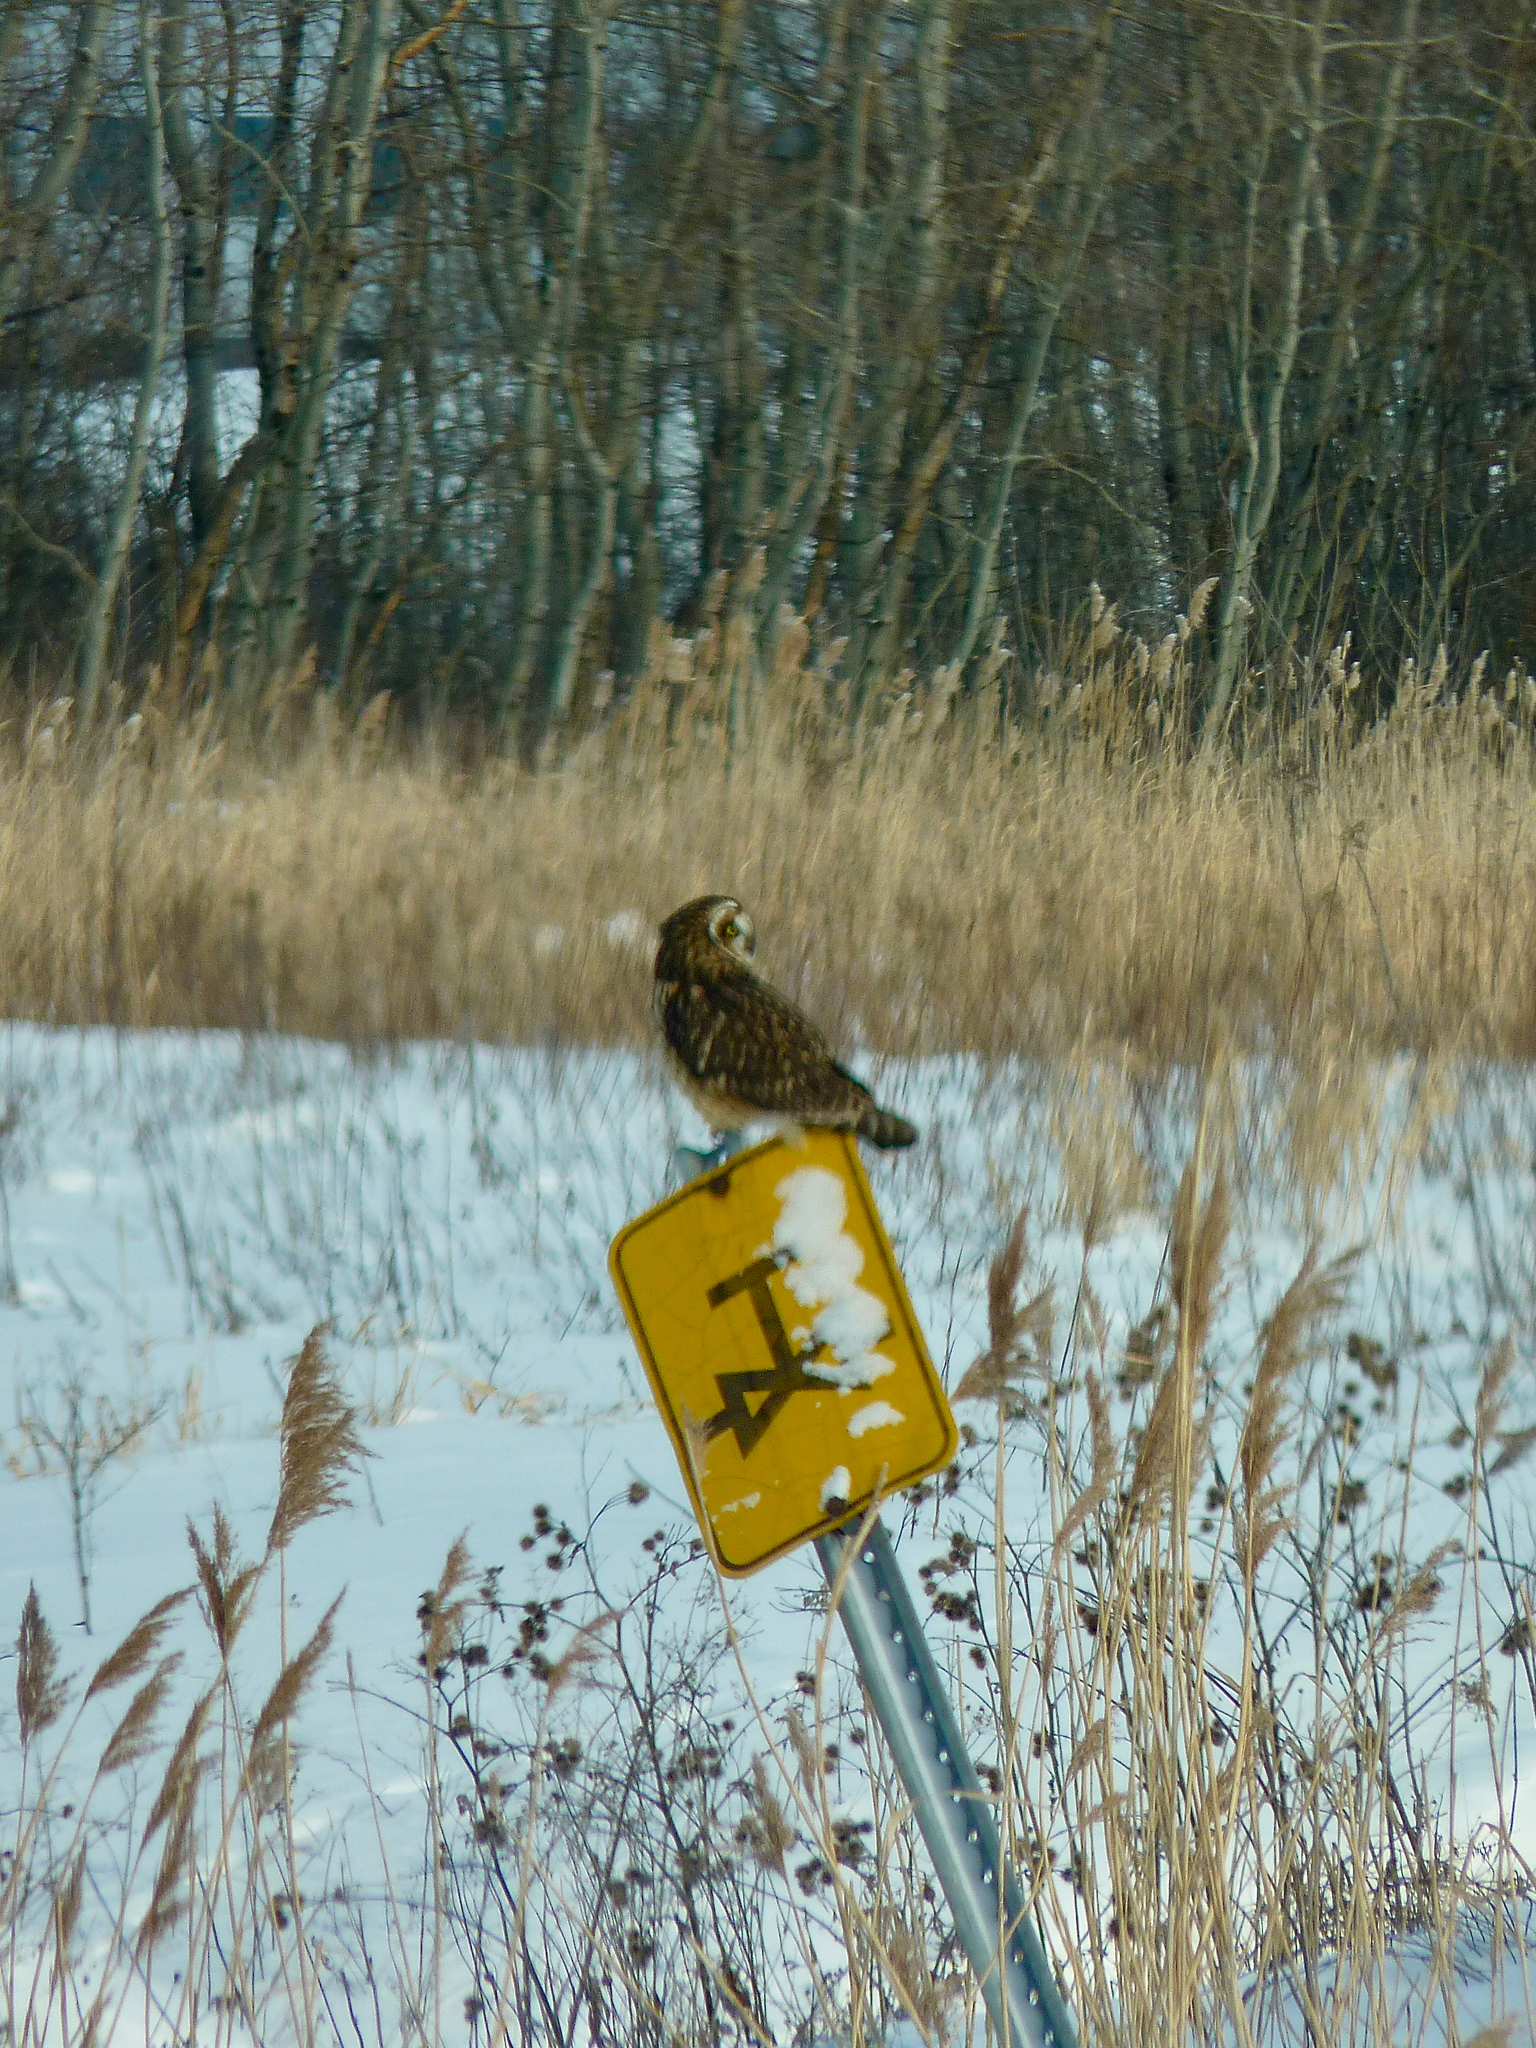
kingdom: Animalia
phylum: Chordata
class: Aves
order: Strigiformes
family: Strigidae
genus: Asio
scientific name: Asio flammeus
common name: Short-eared owl
